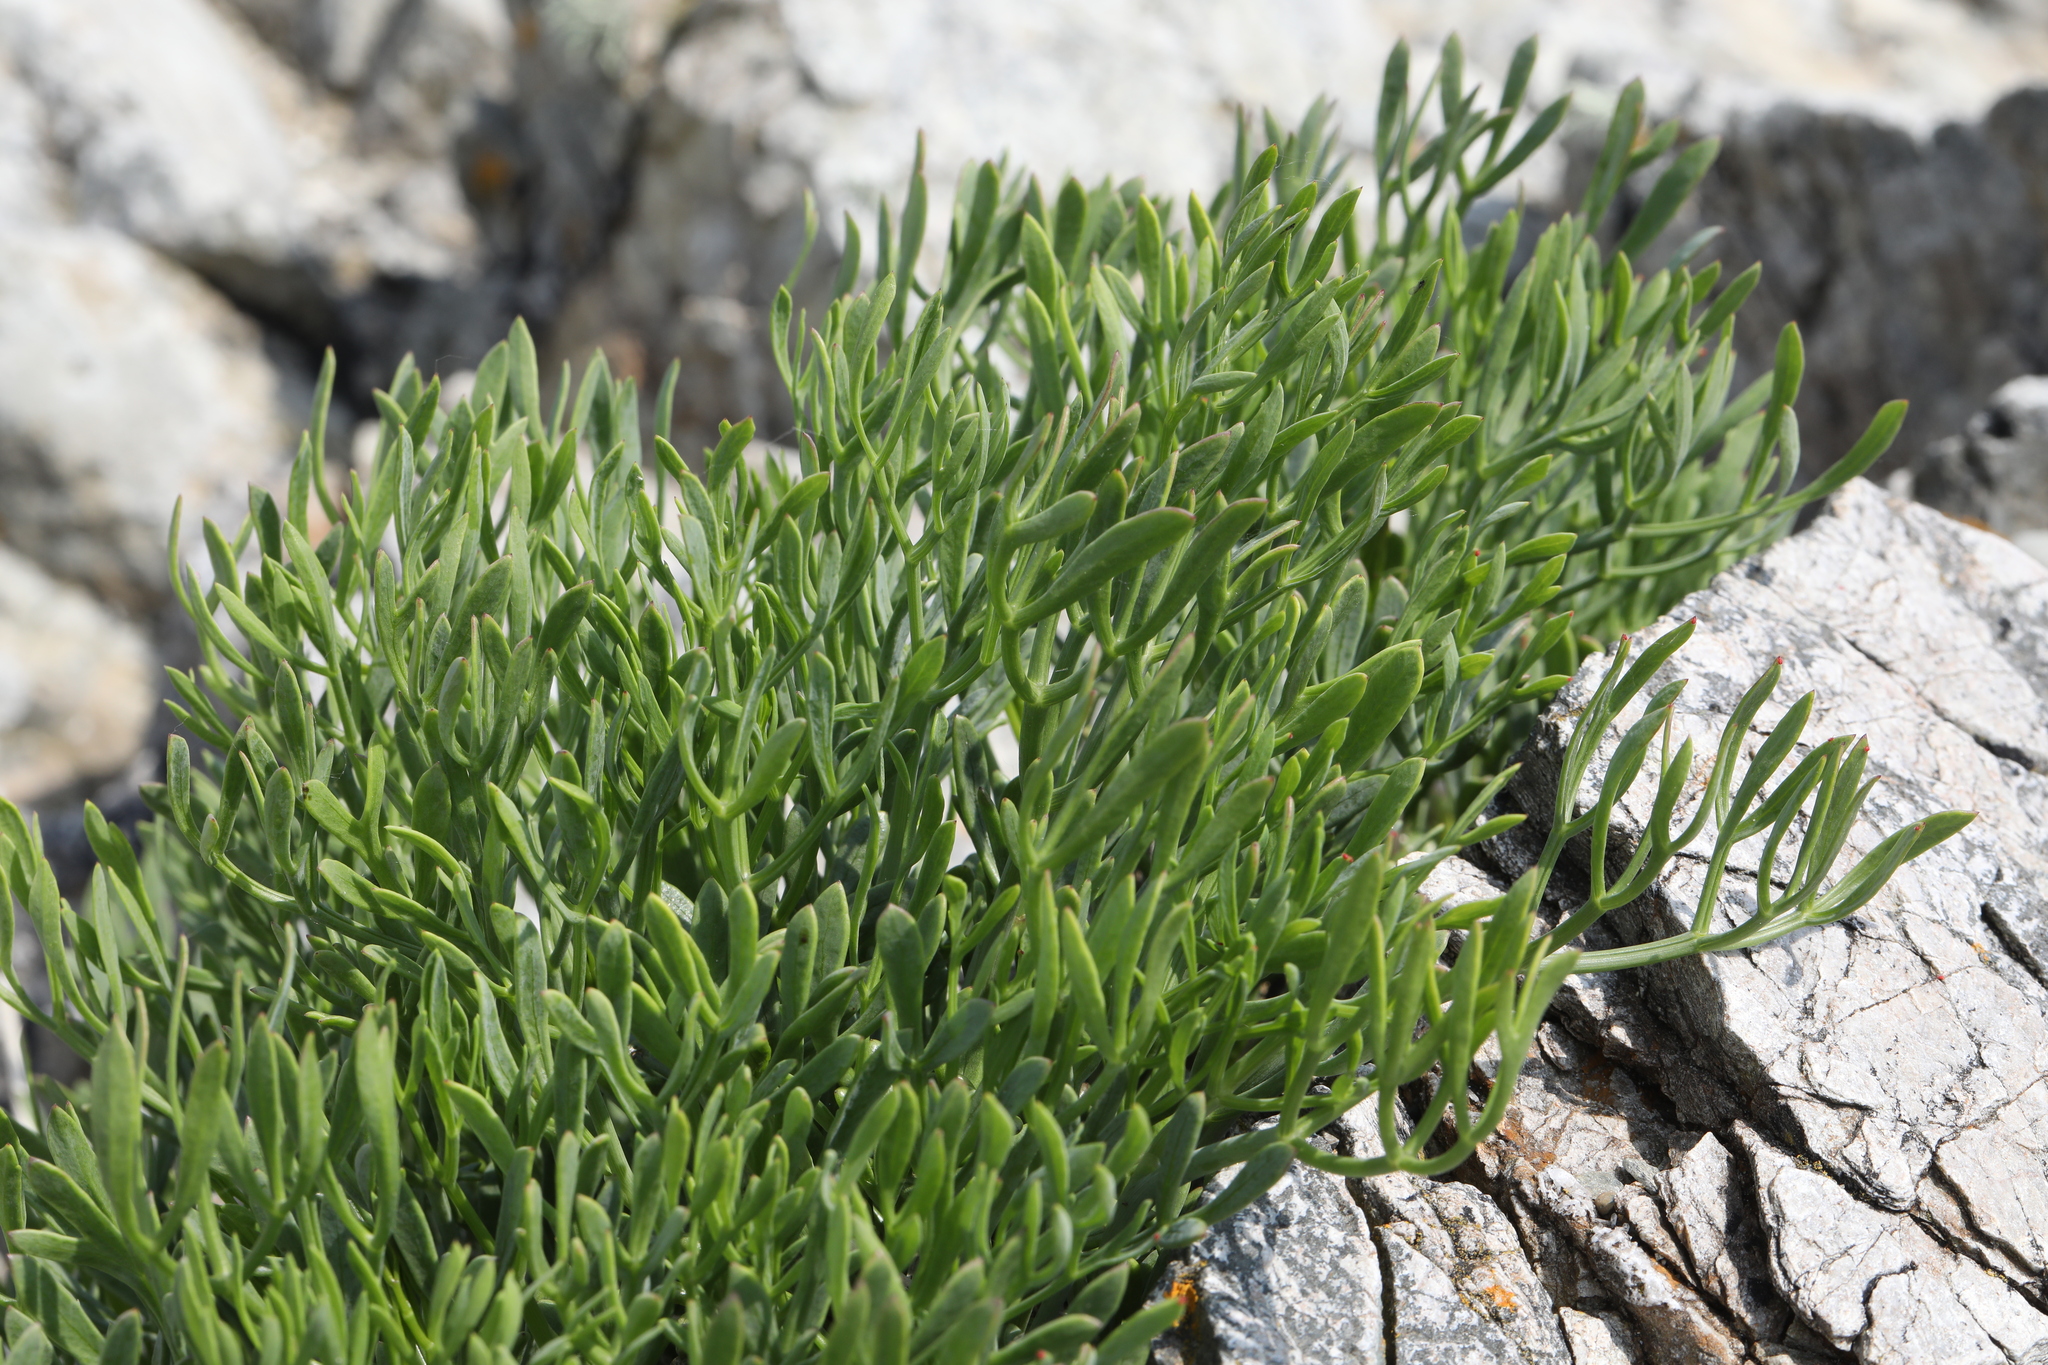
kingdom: Plantae
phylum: Tracheophyta
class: Magnoliopsida
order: Apiales
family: Apiaceae
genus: Crithmum
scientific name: Crithmum maritimum
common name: Rock samphire
